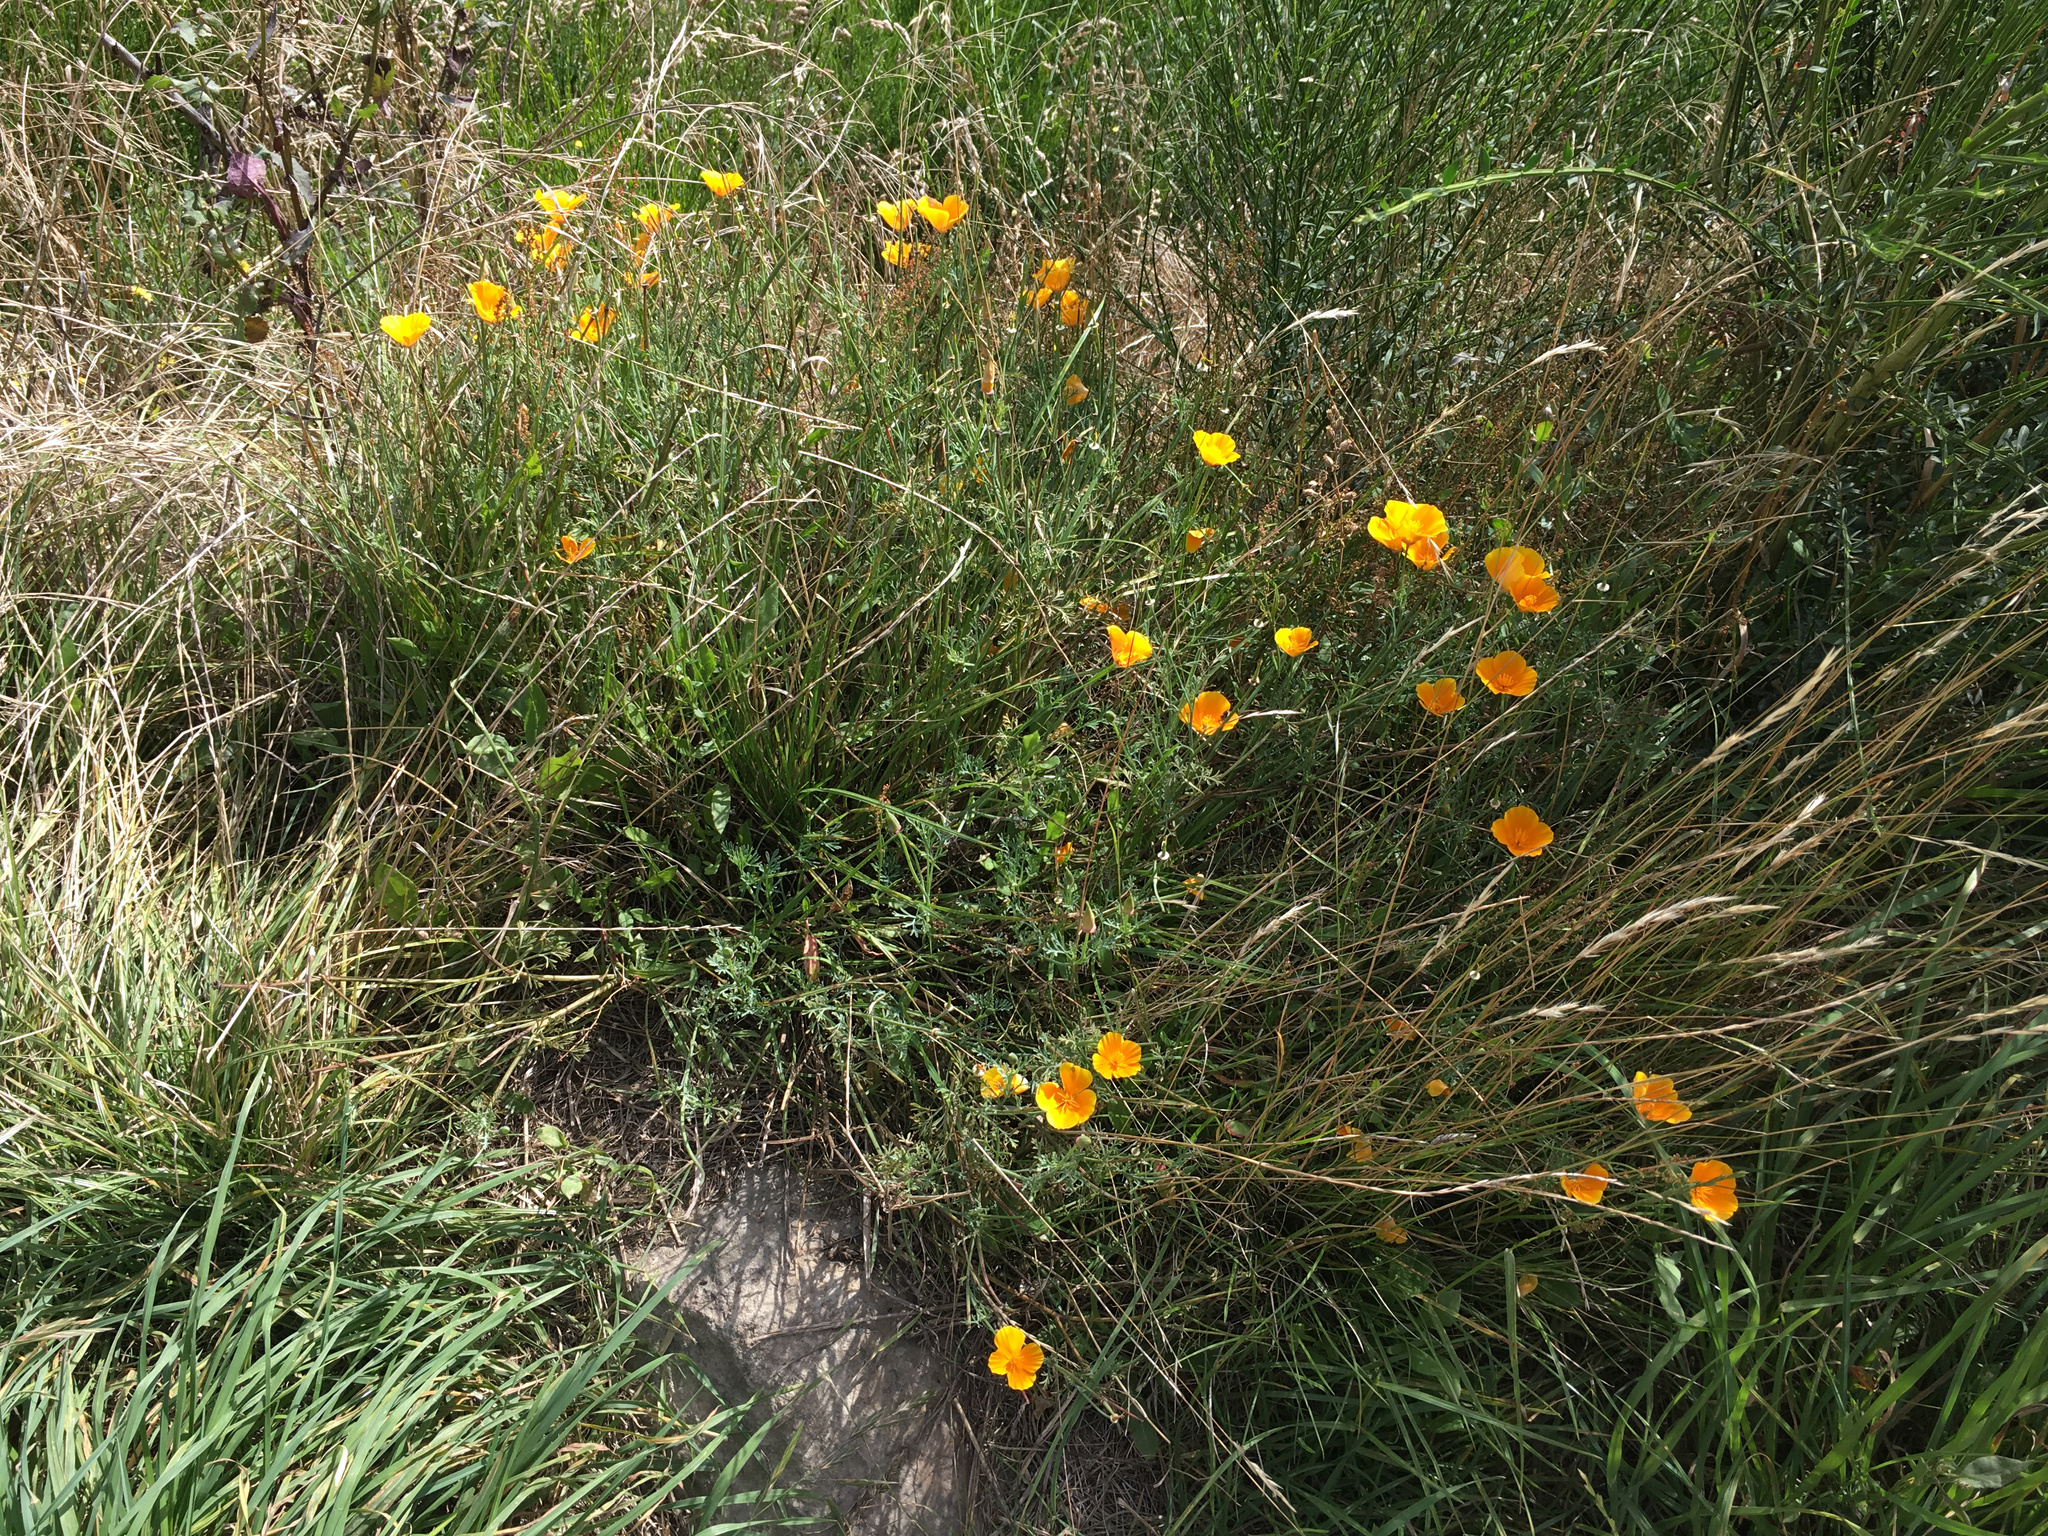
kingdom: Plantae
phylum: Tracheophyta
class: Magnoliopsida
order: Ranunculales
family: Papaveraceae
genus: Eschscholzia
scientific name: Eschscholzia californica
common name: California poppy
